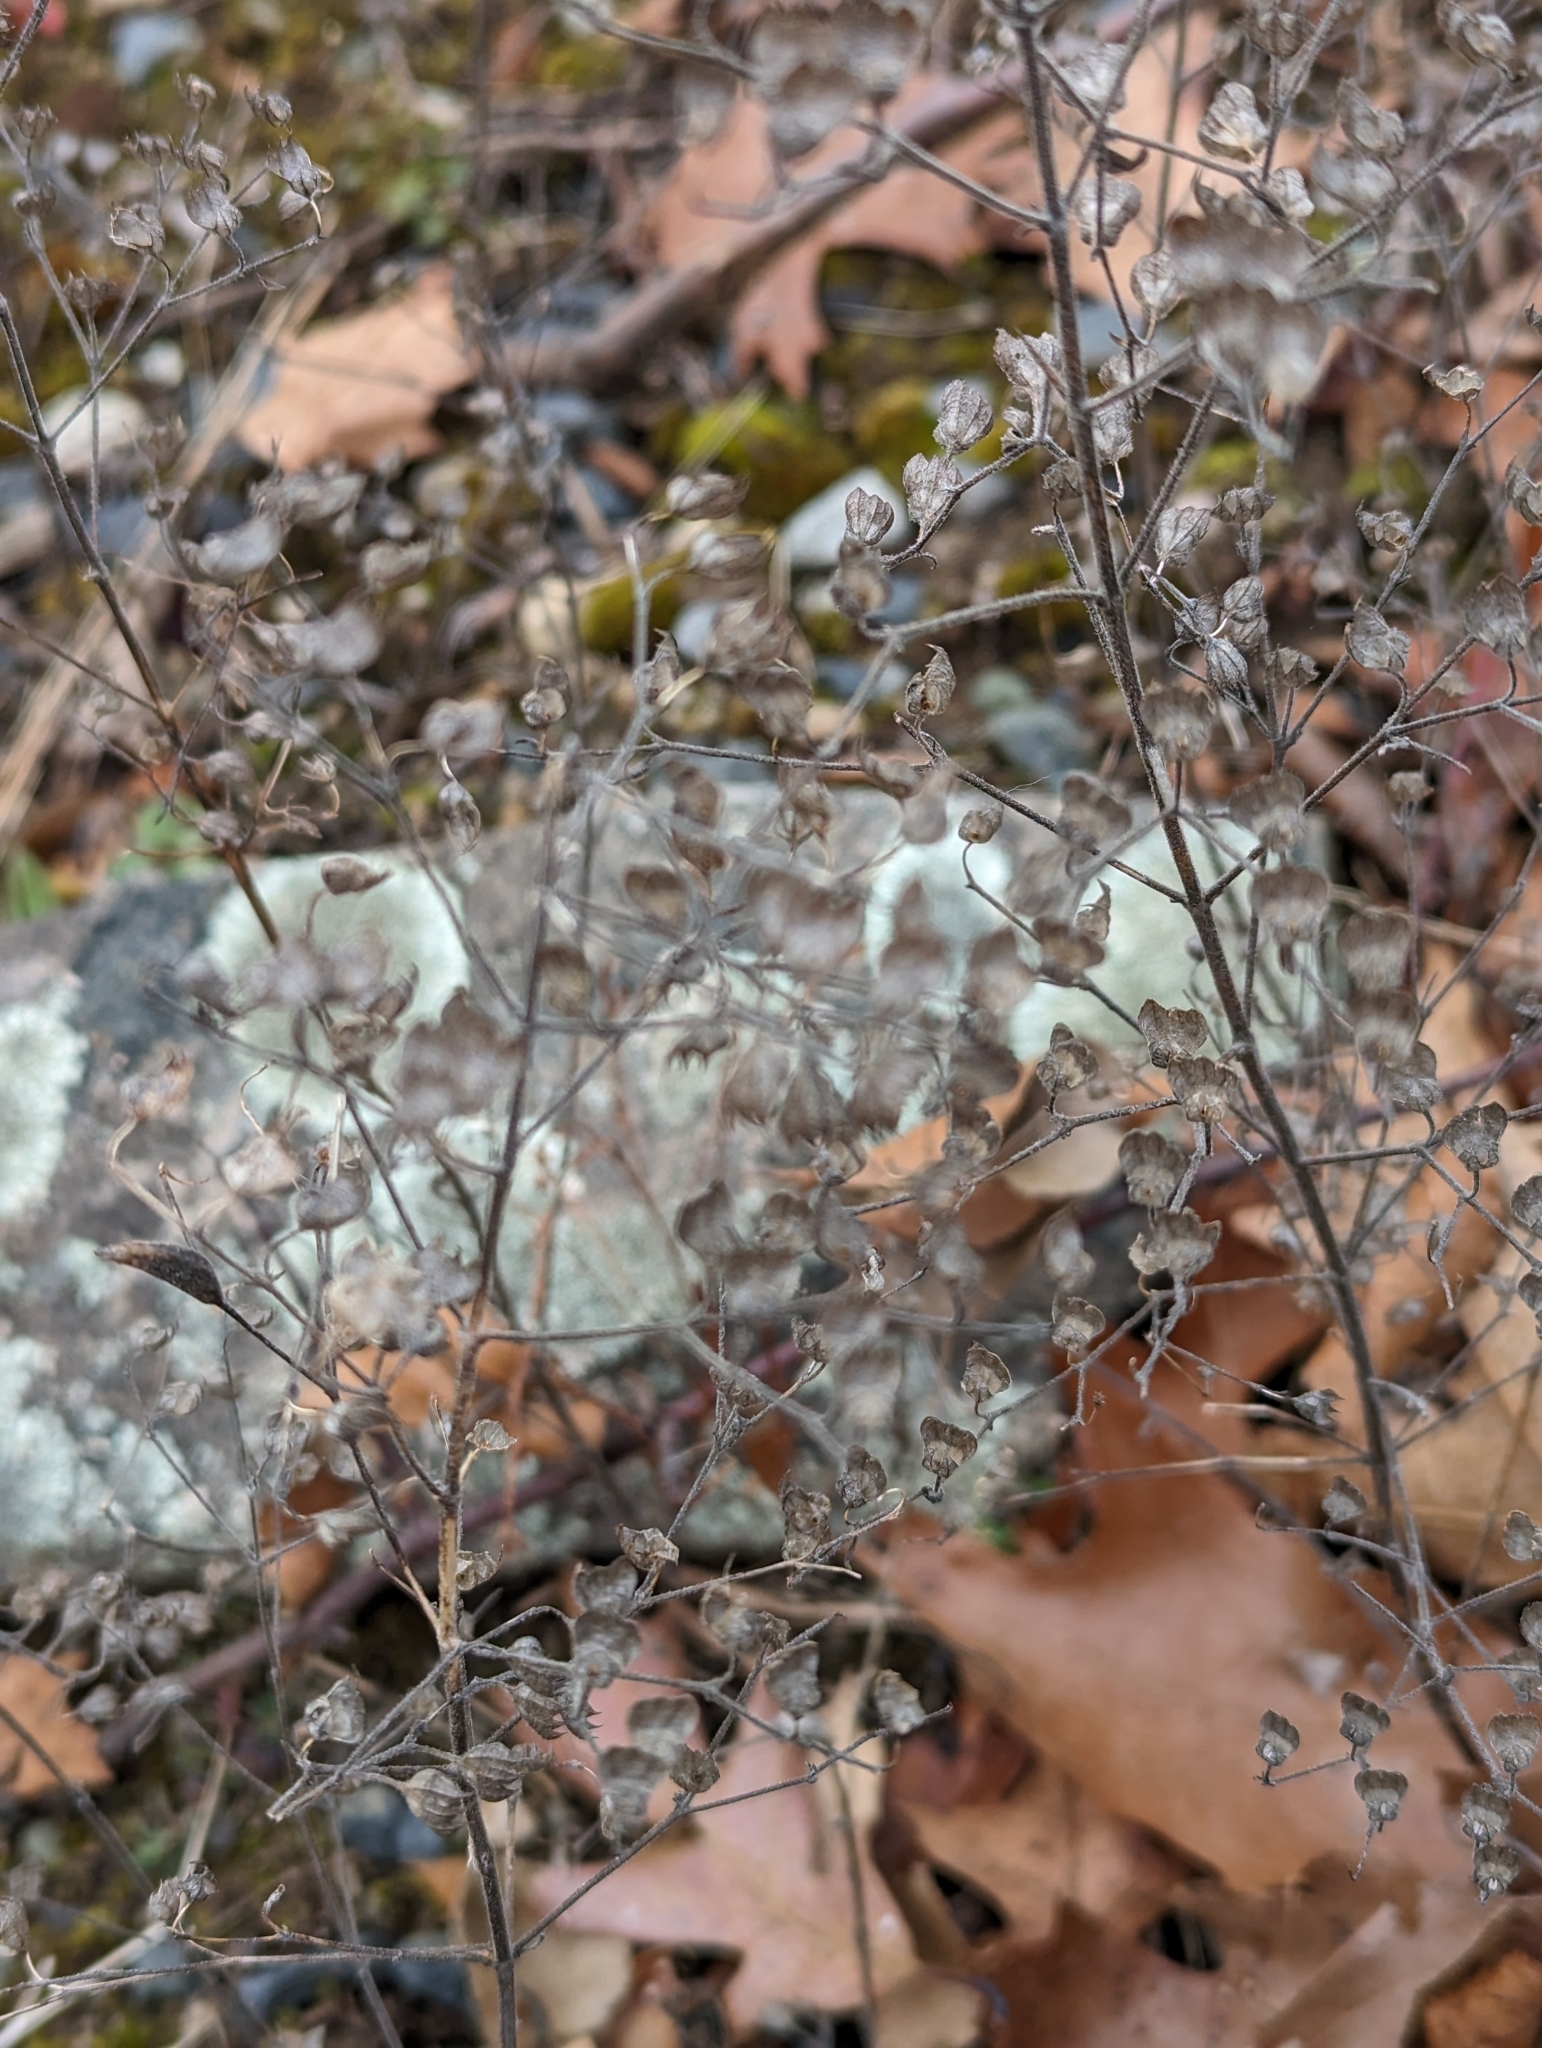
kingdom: Plantae
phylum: Tracheophyta
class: Magnoliopsida
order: Lamiales
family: Lamiaceae
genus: Trichostema
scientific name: Trichostema dichotomum
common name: Bastard pennyroyal
